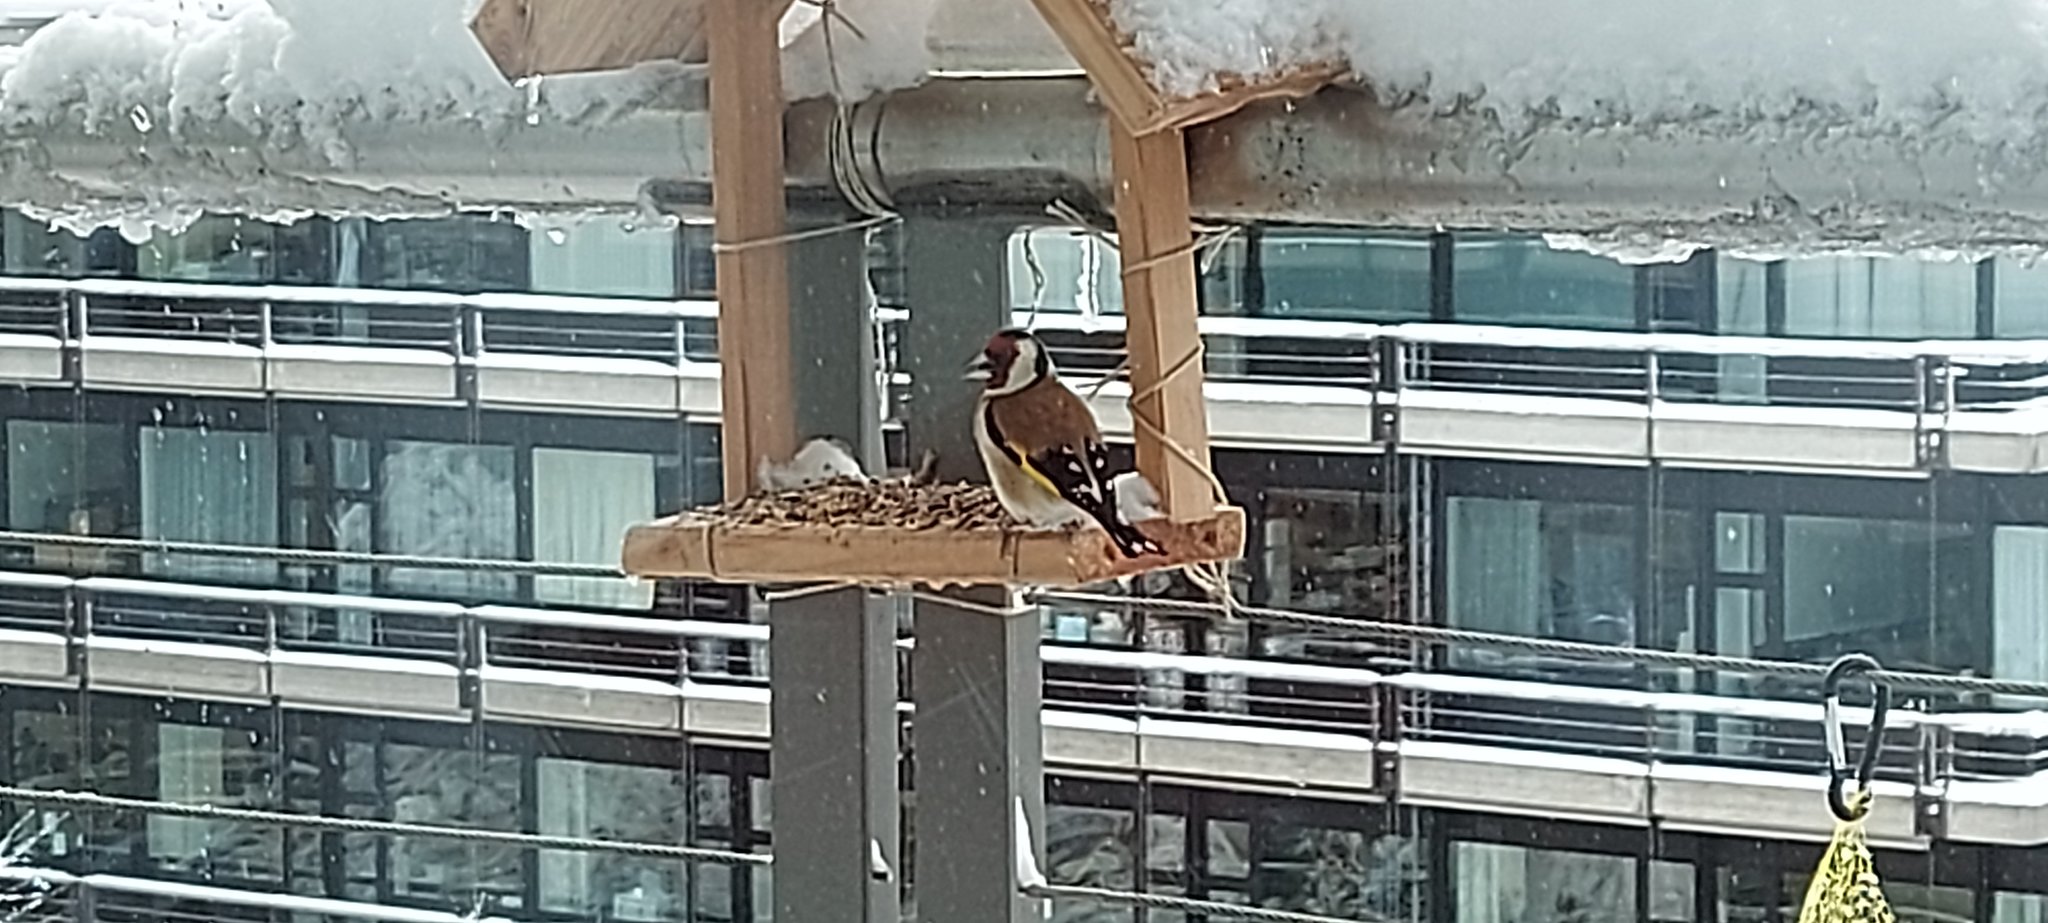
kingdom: Animalia
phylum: Chordata
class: Aves
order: Passeriformes
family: Fringillidae
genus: Carduelis
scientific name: Carduelis carduelis
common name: European goldfinch
